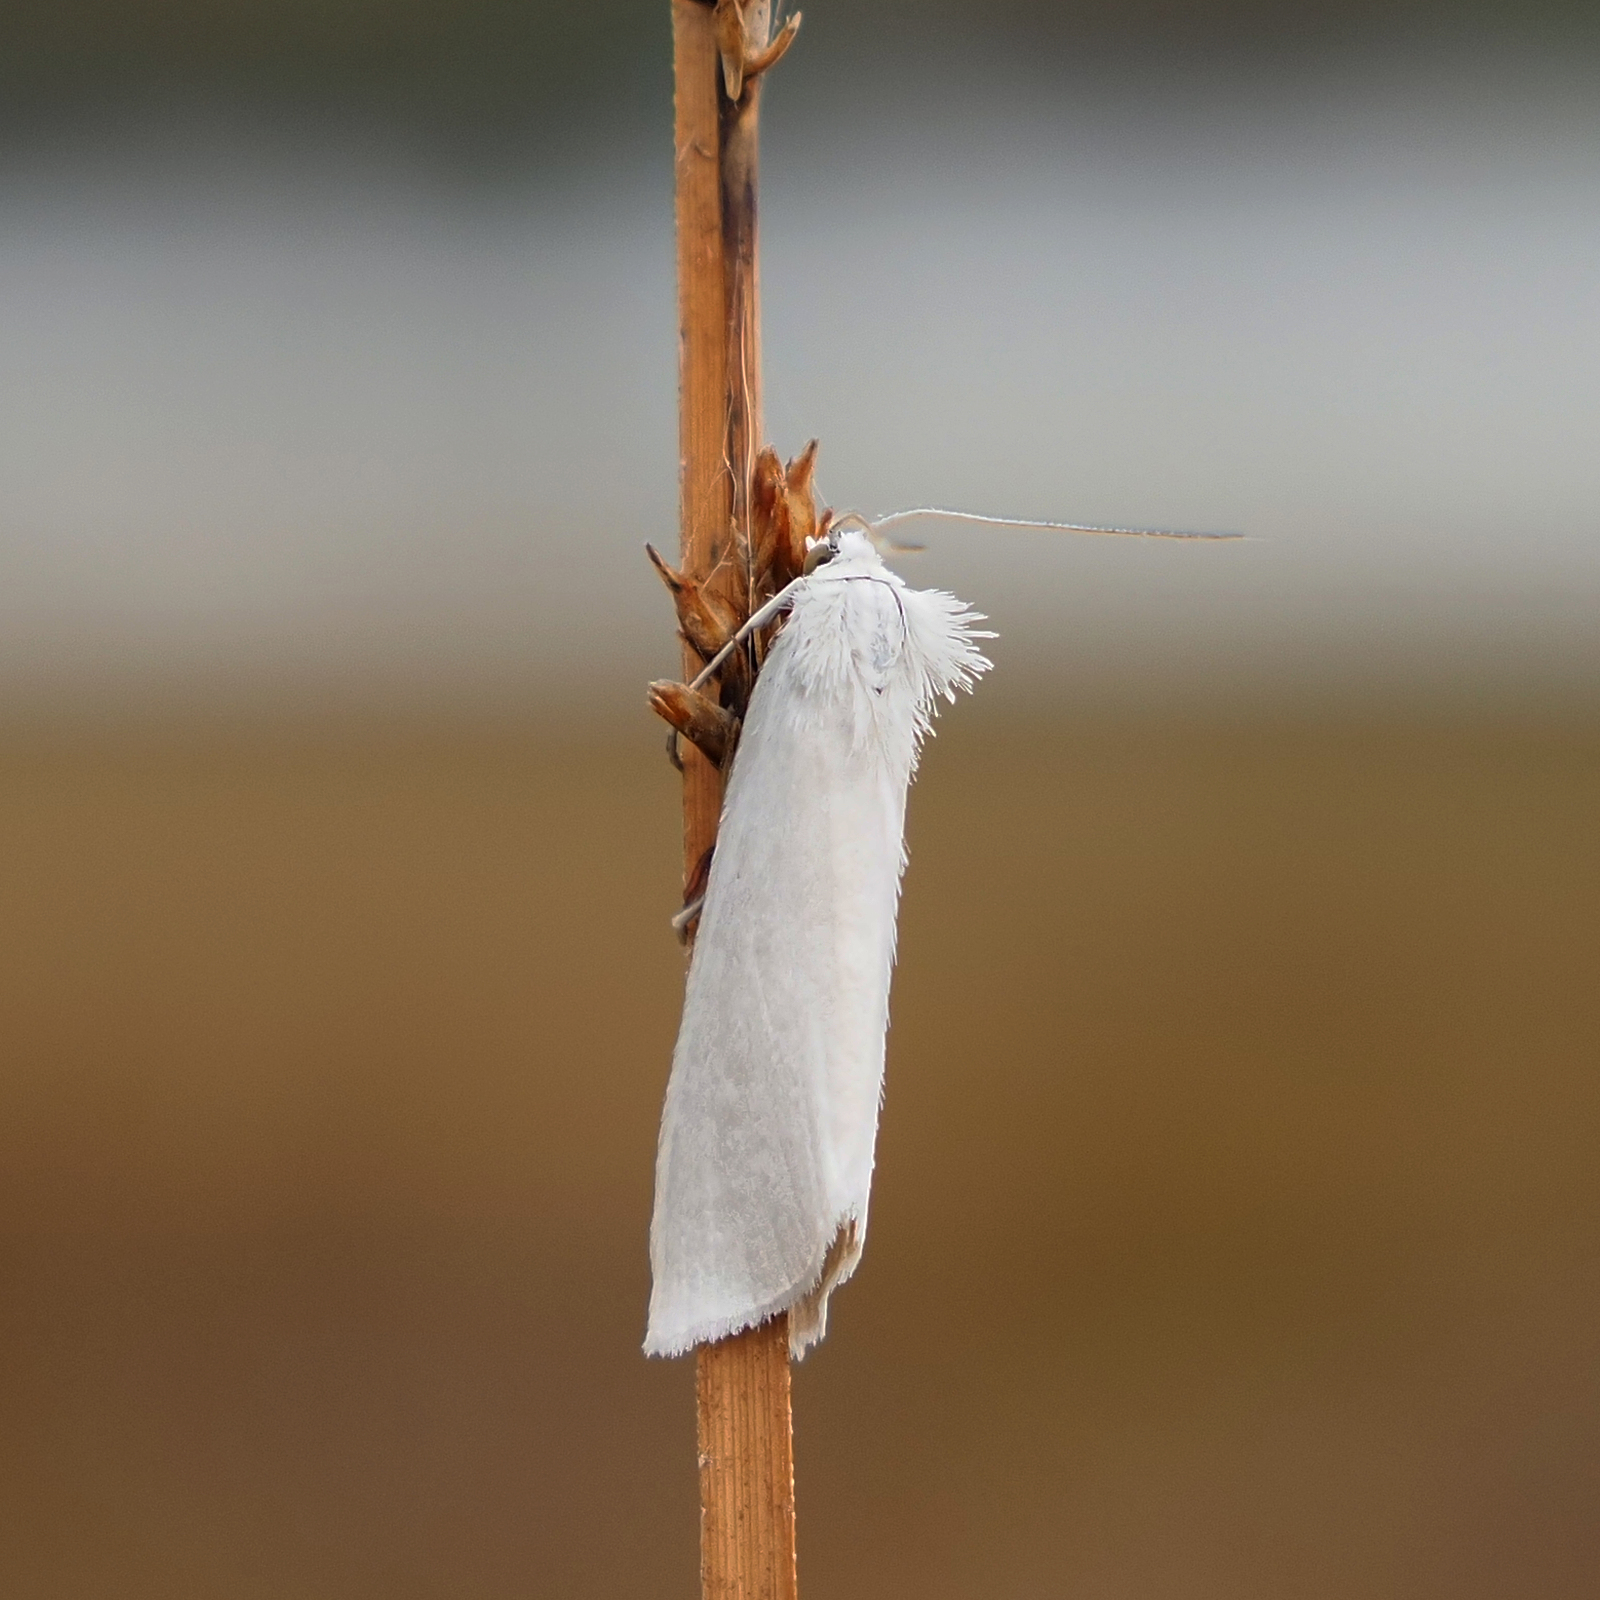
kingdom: Animalia
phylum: Arthropoda
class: Insecta
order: Lepidoptera
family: Crambidae
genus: Tipanaea
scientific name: Tipanaea patulella
